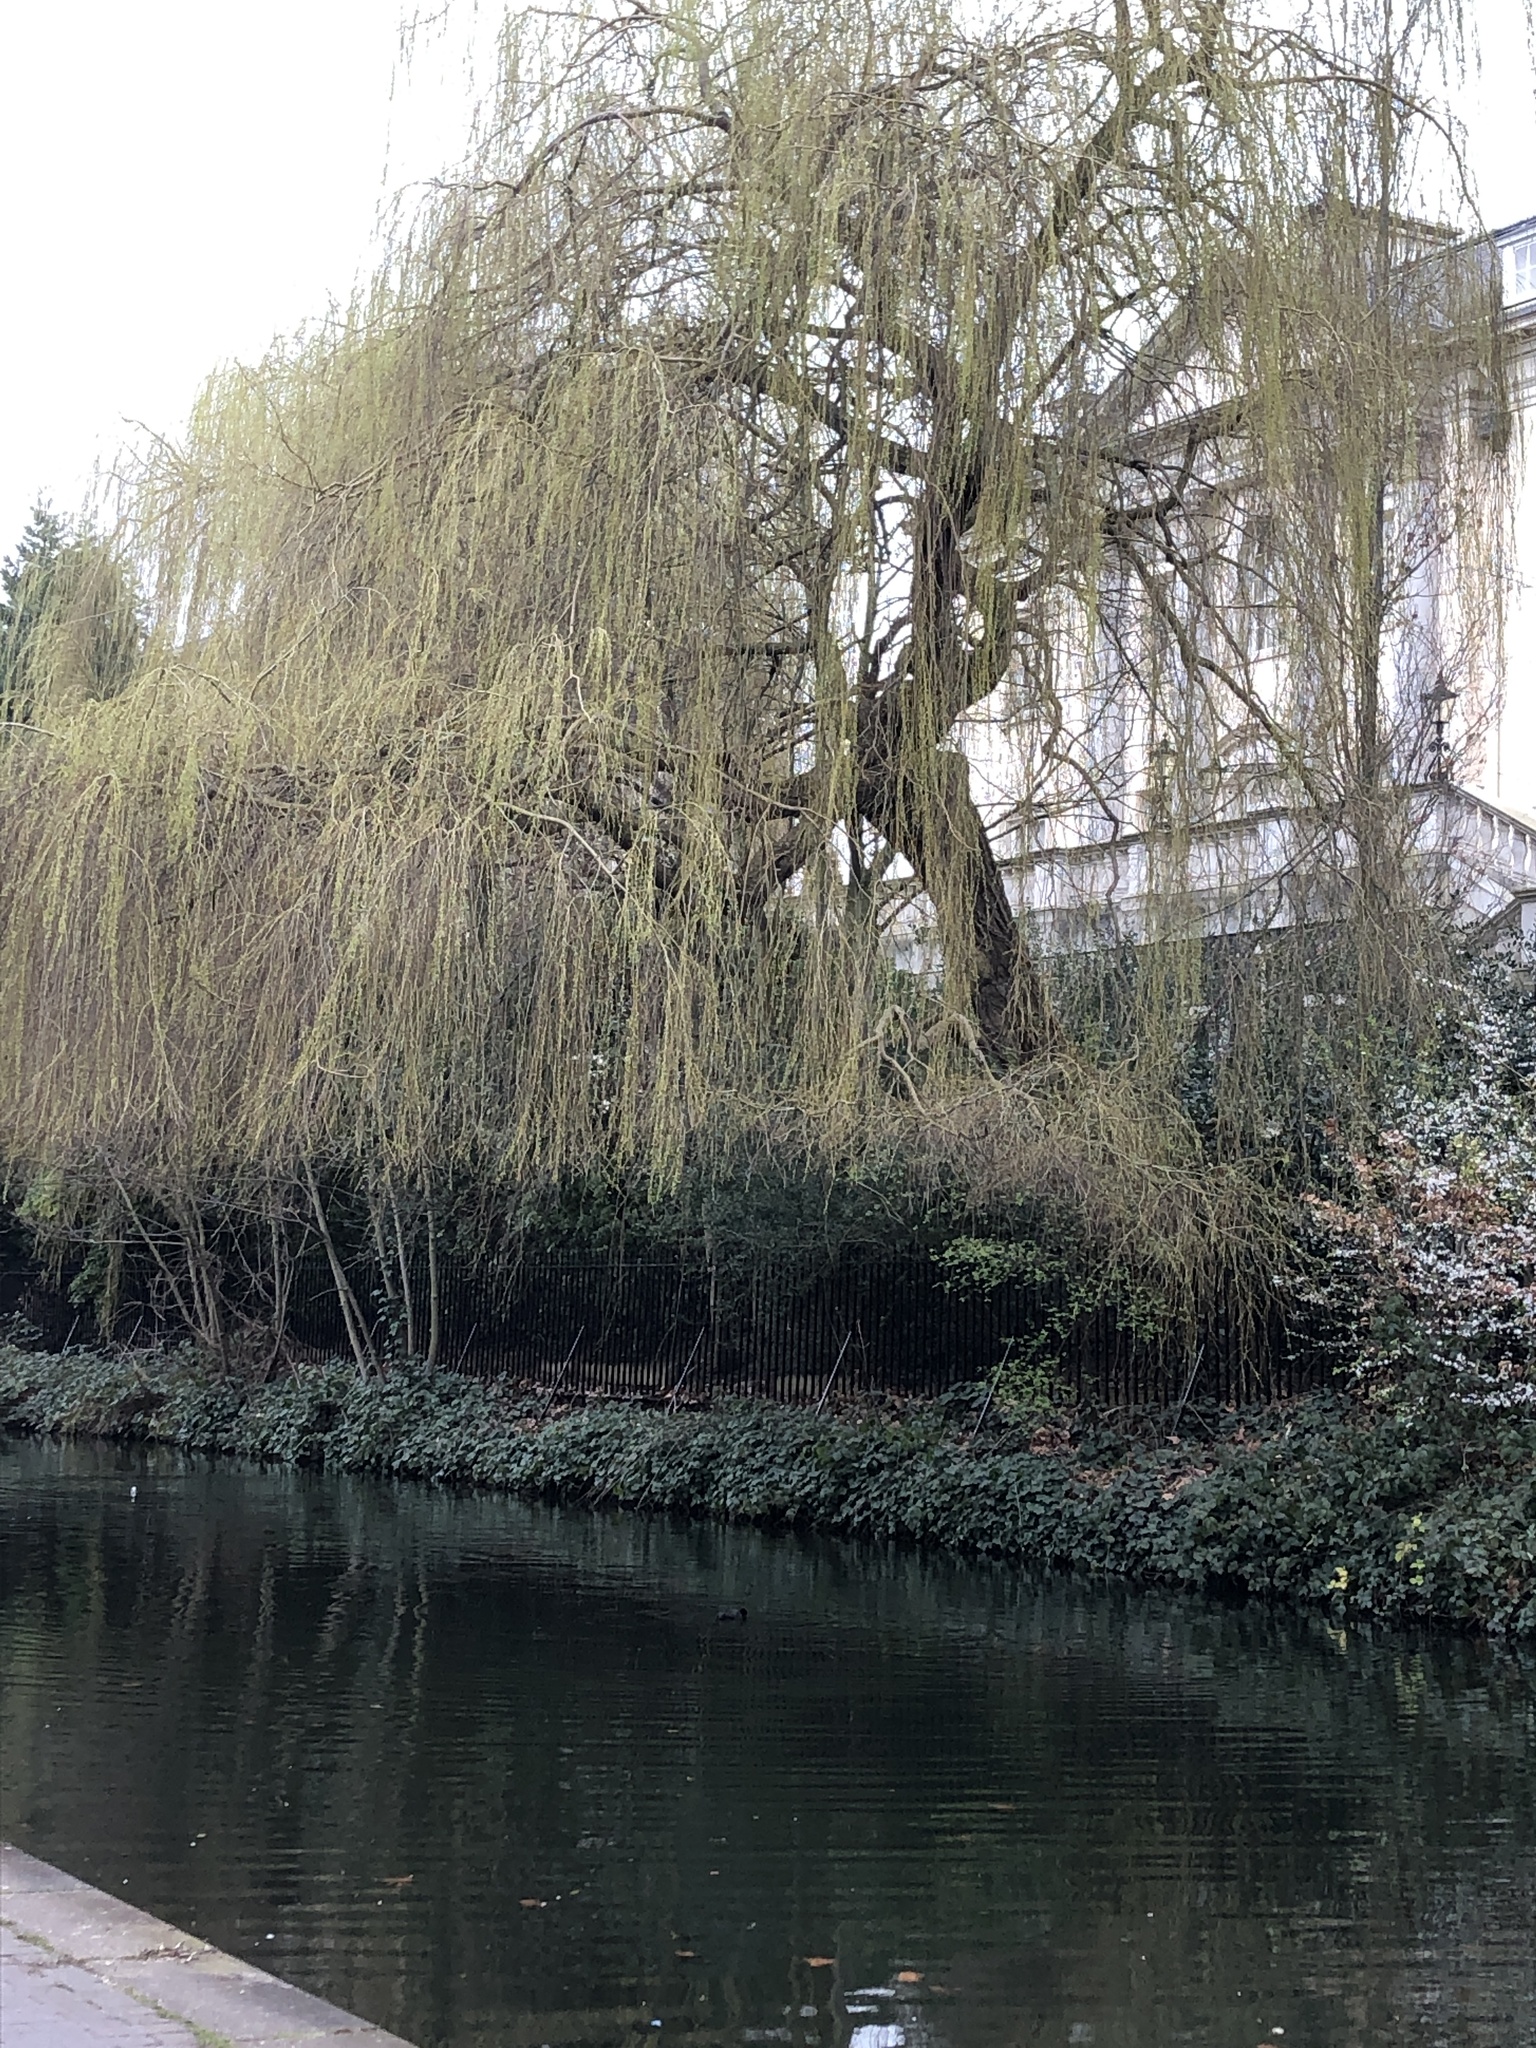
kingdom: Plantae
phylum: Tracheophyta
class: Magnoliopsida
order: Malpighiales
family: Salicaceae
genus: Salix
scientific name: Salix pendulina
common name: Wisconsin weeping willow
